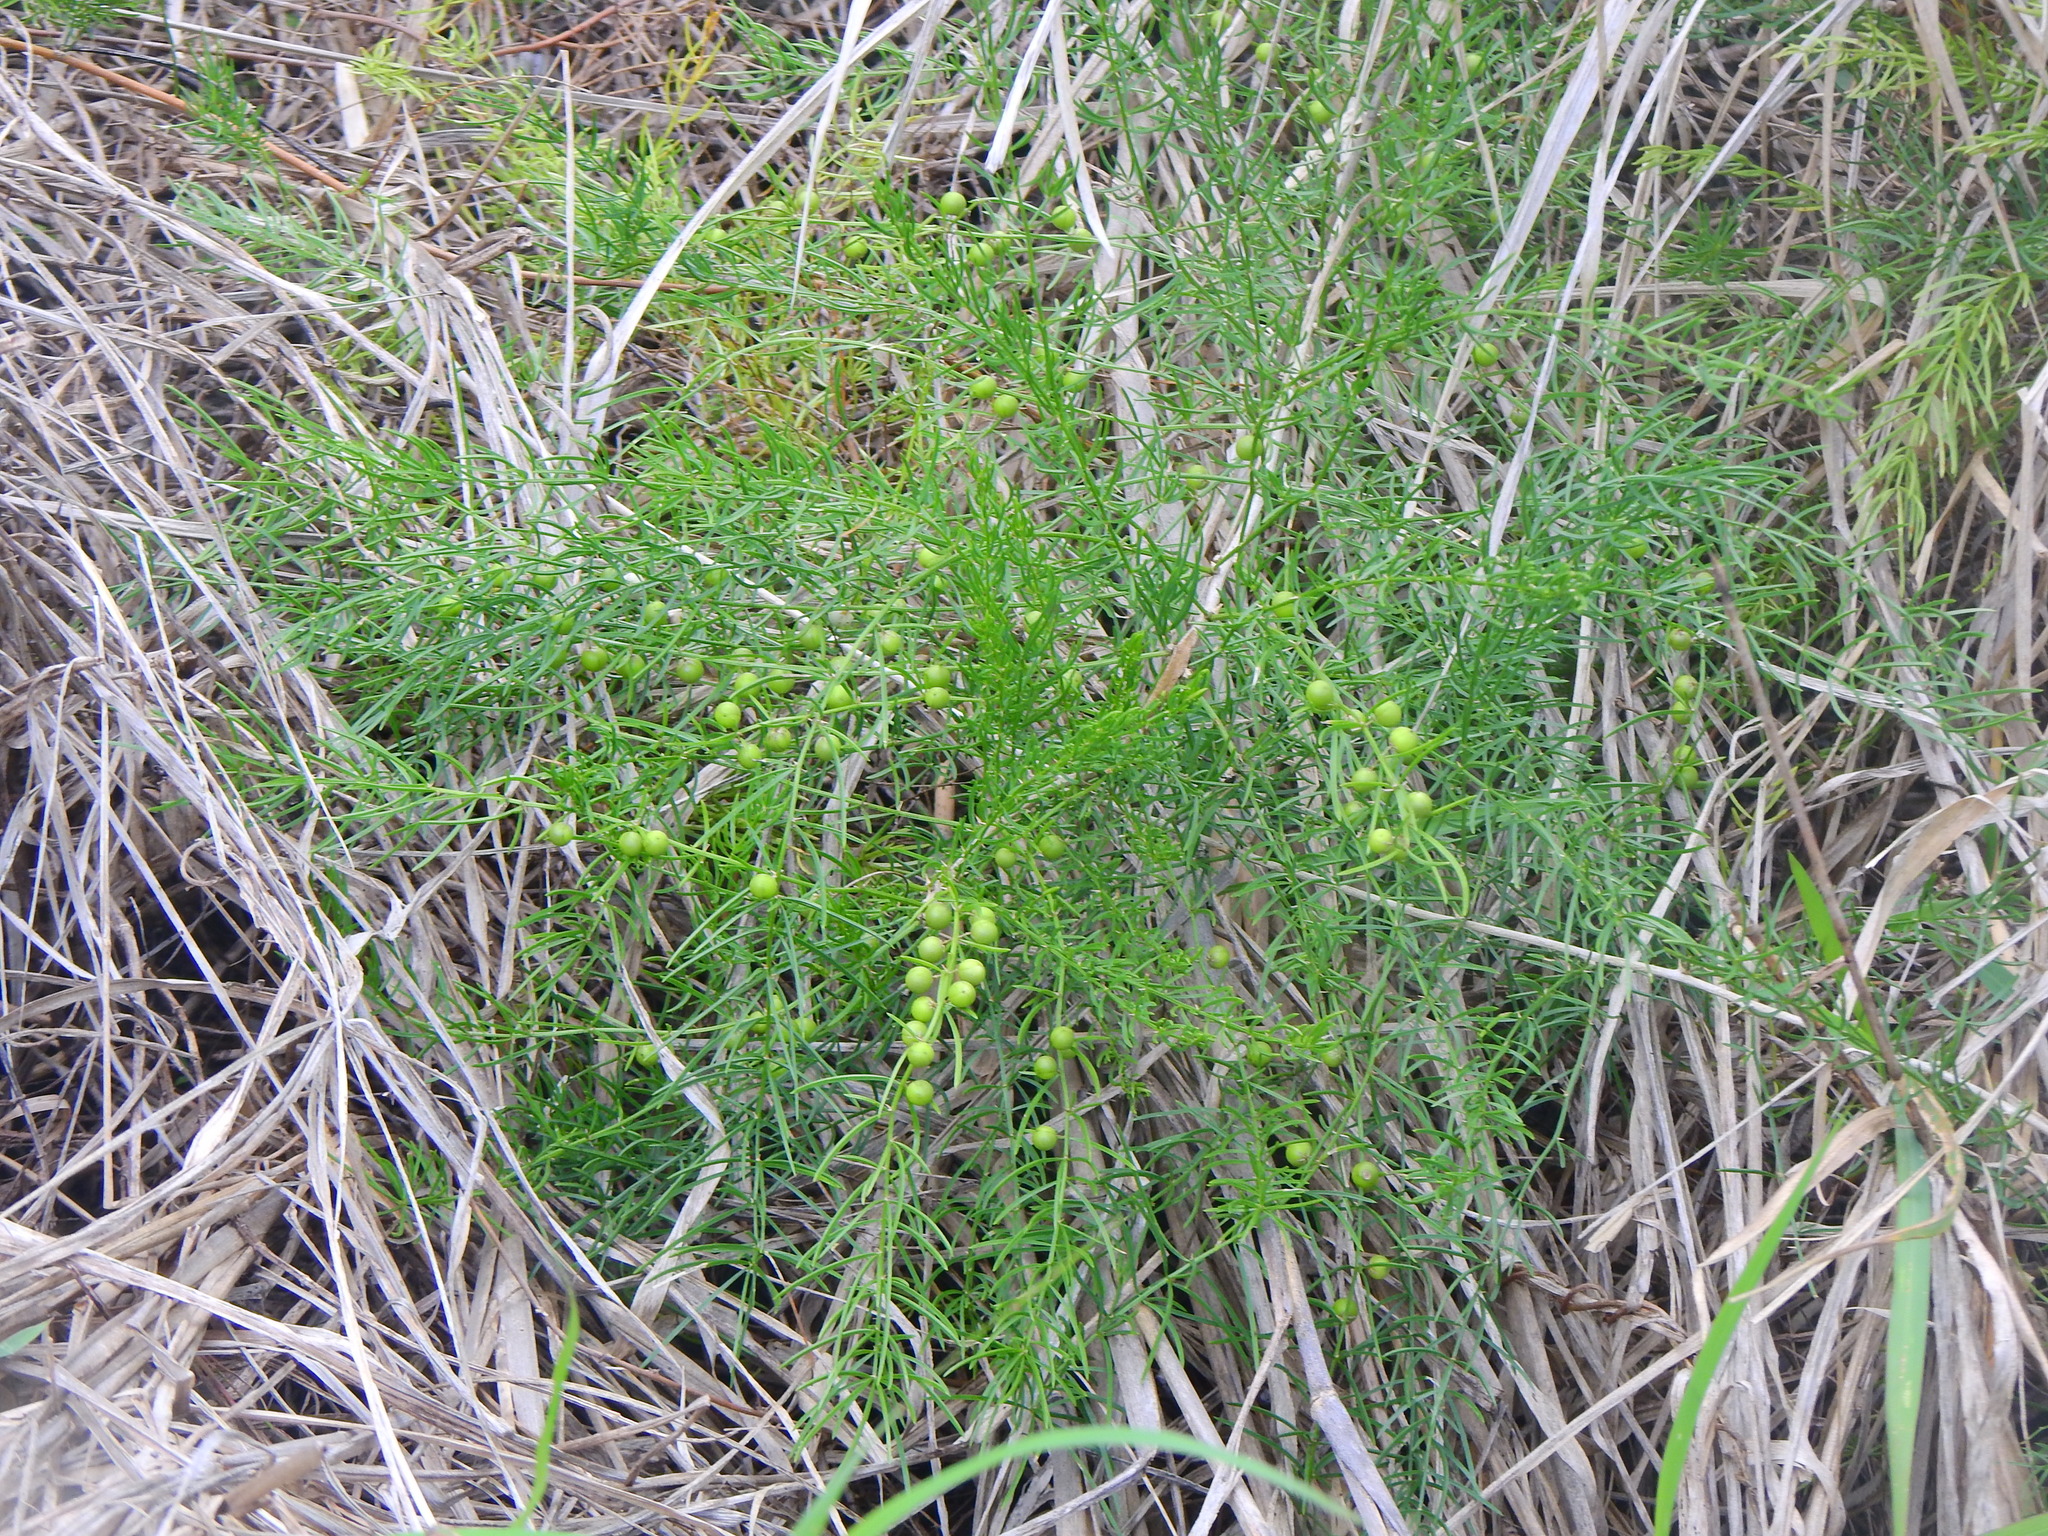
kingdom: Plantae
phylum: Tracheophyta
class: Liliopsida
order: Asparagales
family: Asparagaceae
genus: Asparagus
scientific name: Asparagus cochinchinensis
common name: Chinese asparagus
